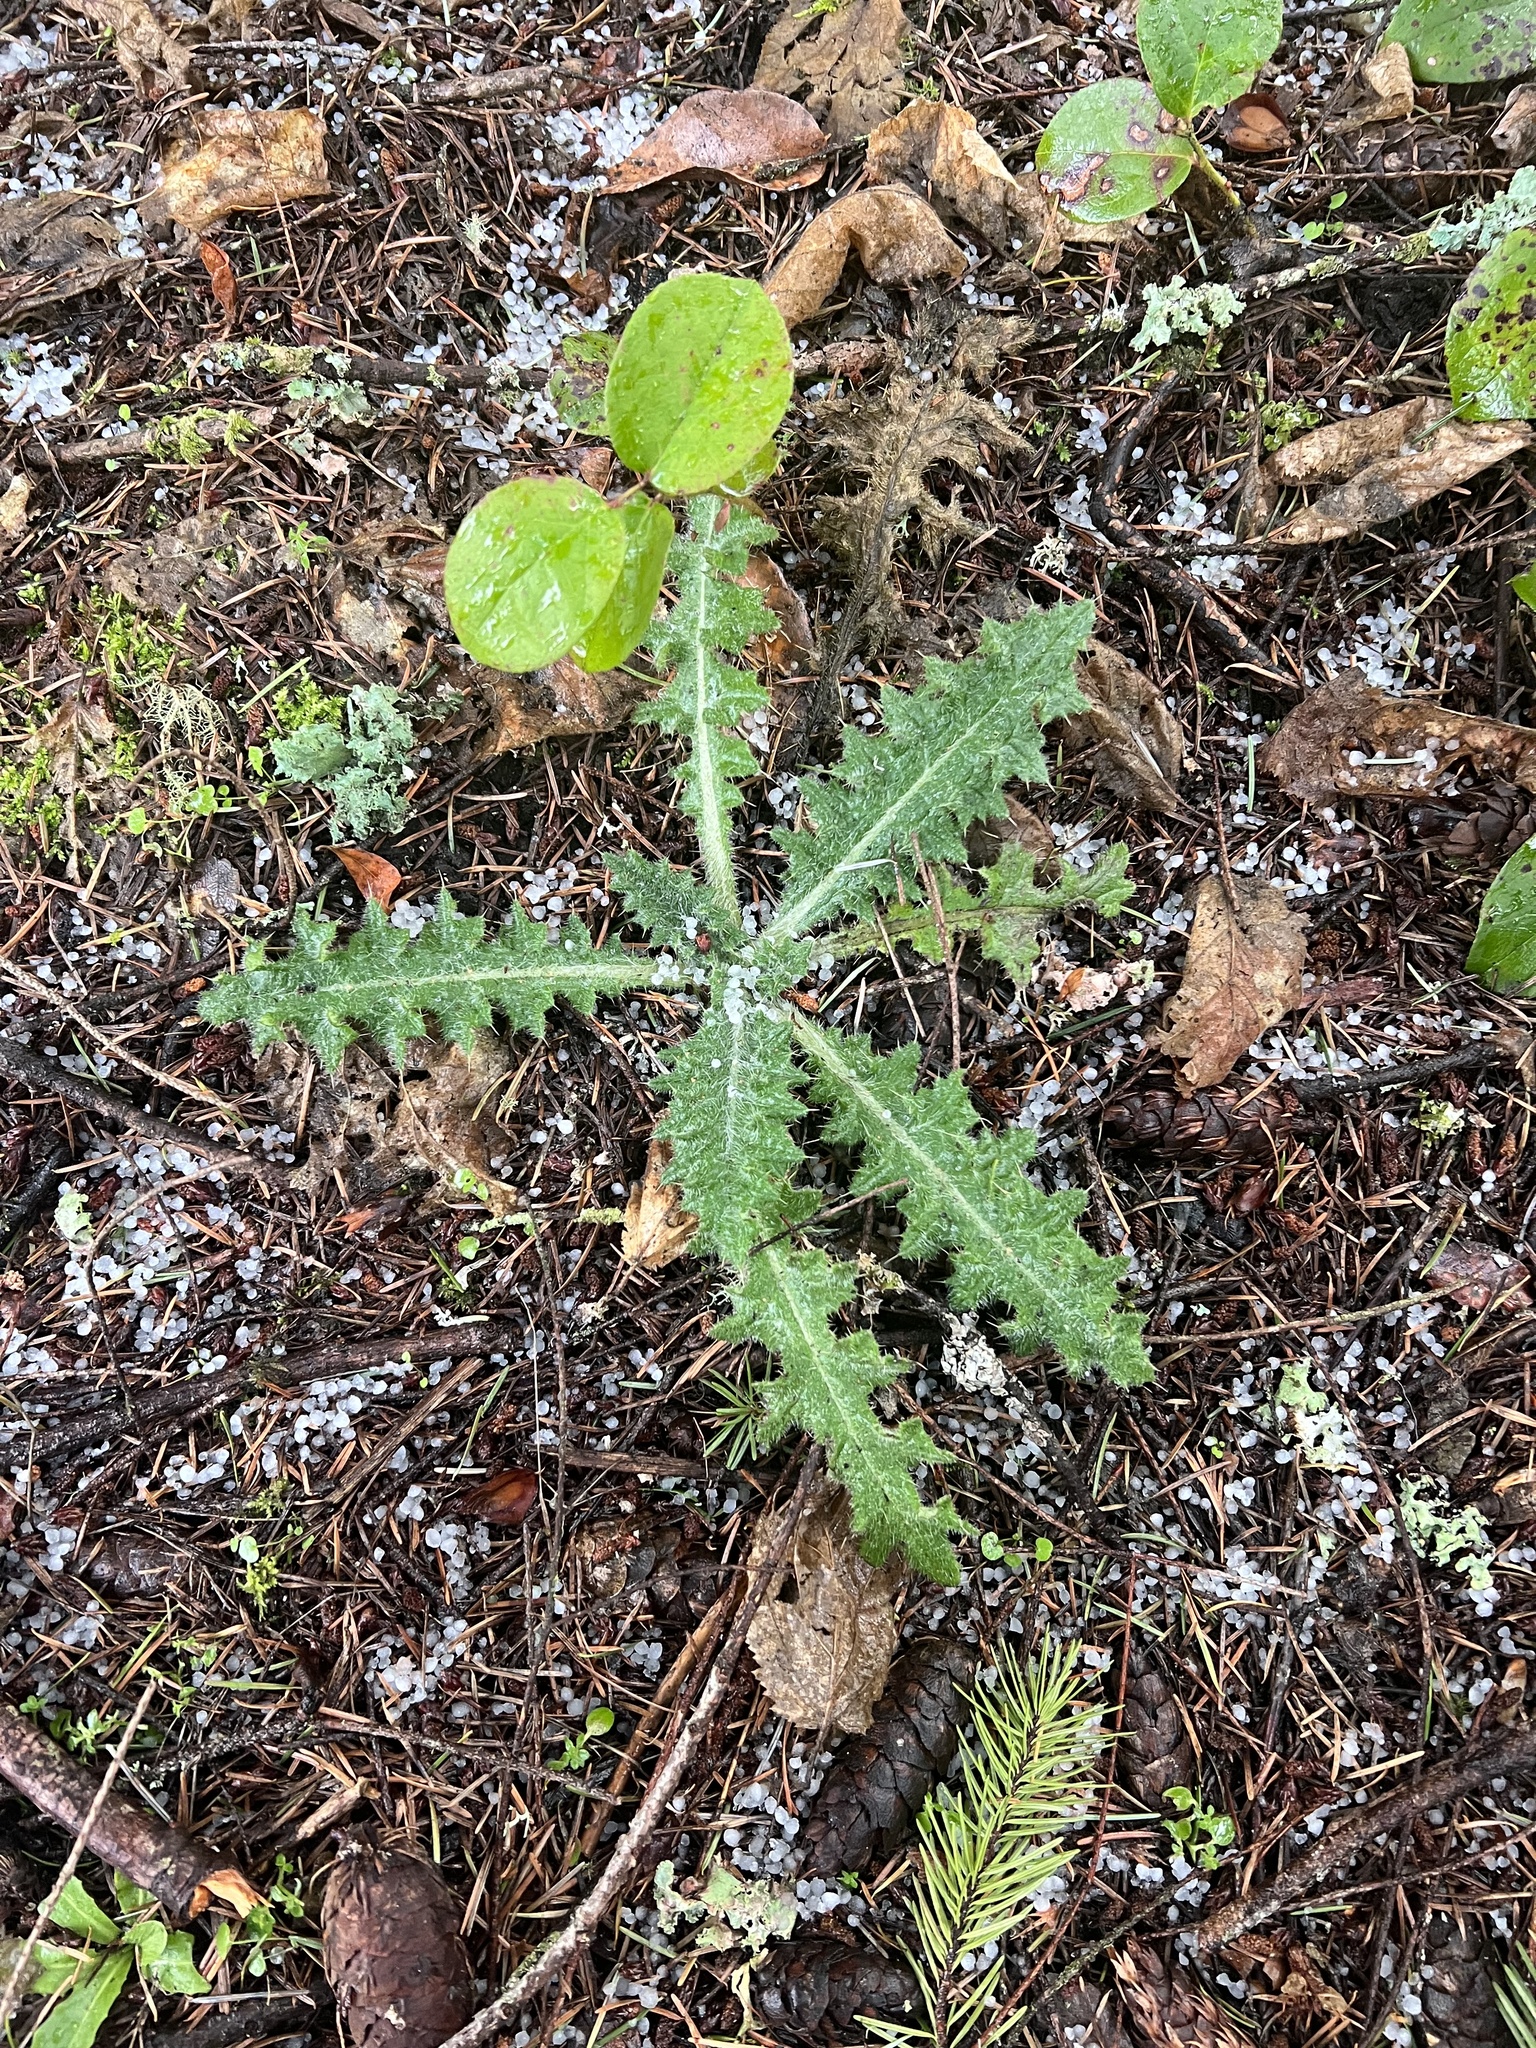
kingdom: Plantae
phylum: Tracheophyta
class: Magnoliopsida
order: Asterales
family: Asteraceae
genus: Cirsium
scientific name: Cirsium vulgare
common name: Bull thistle
